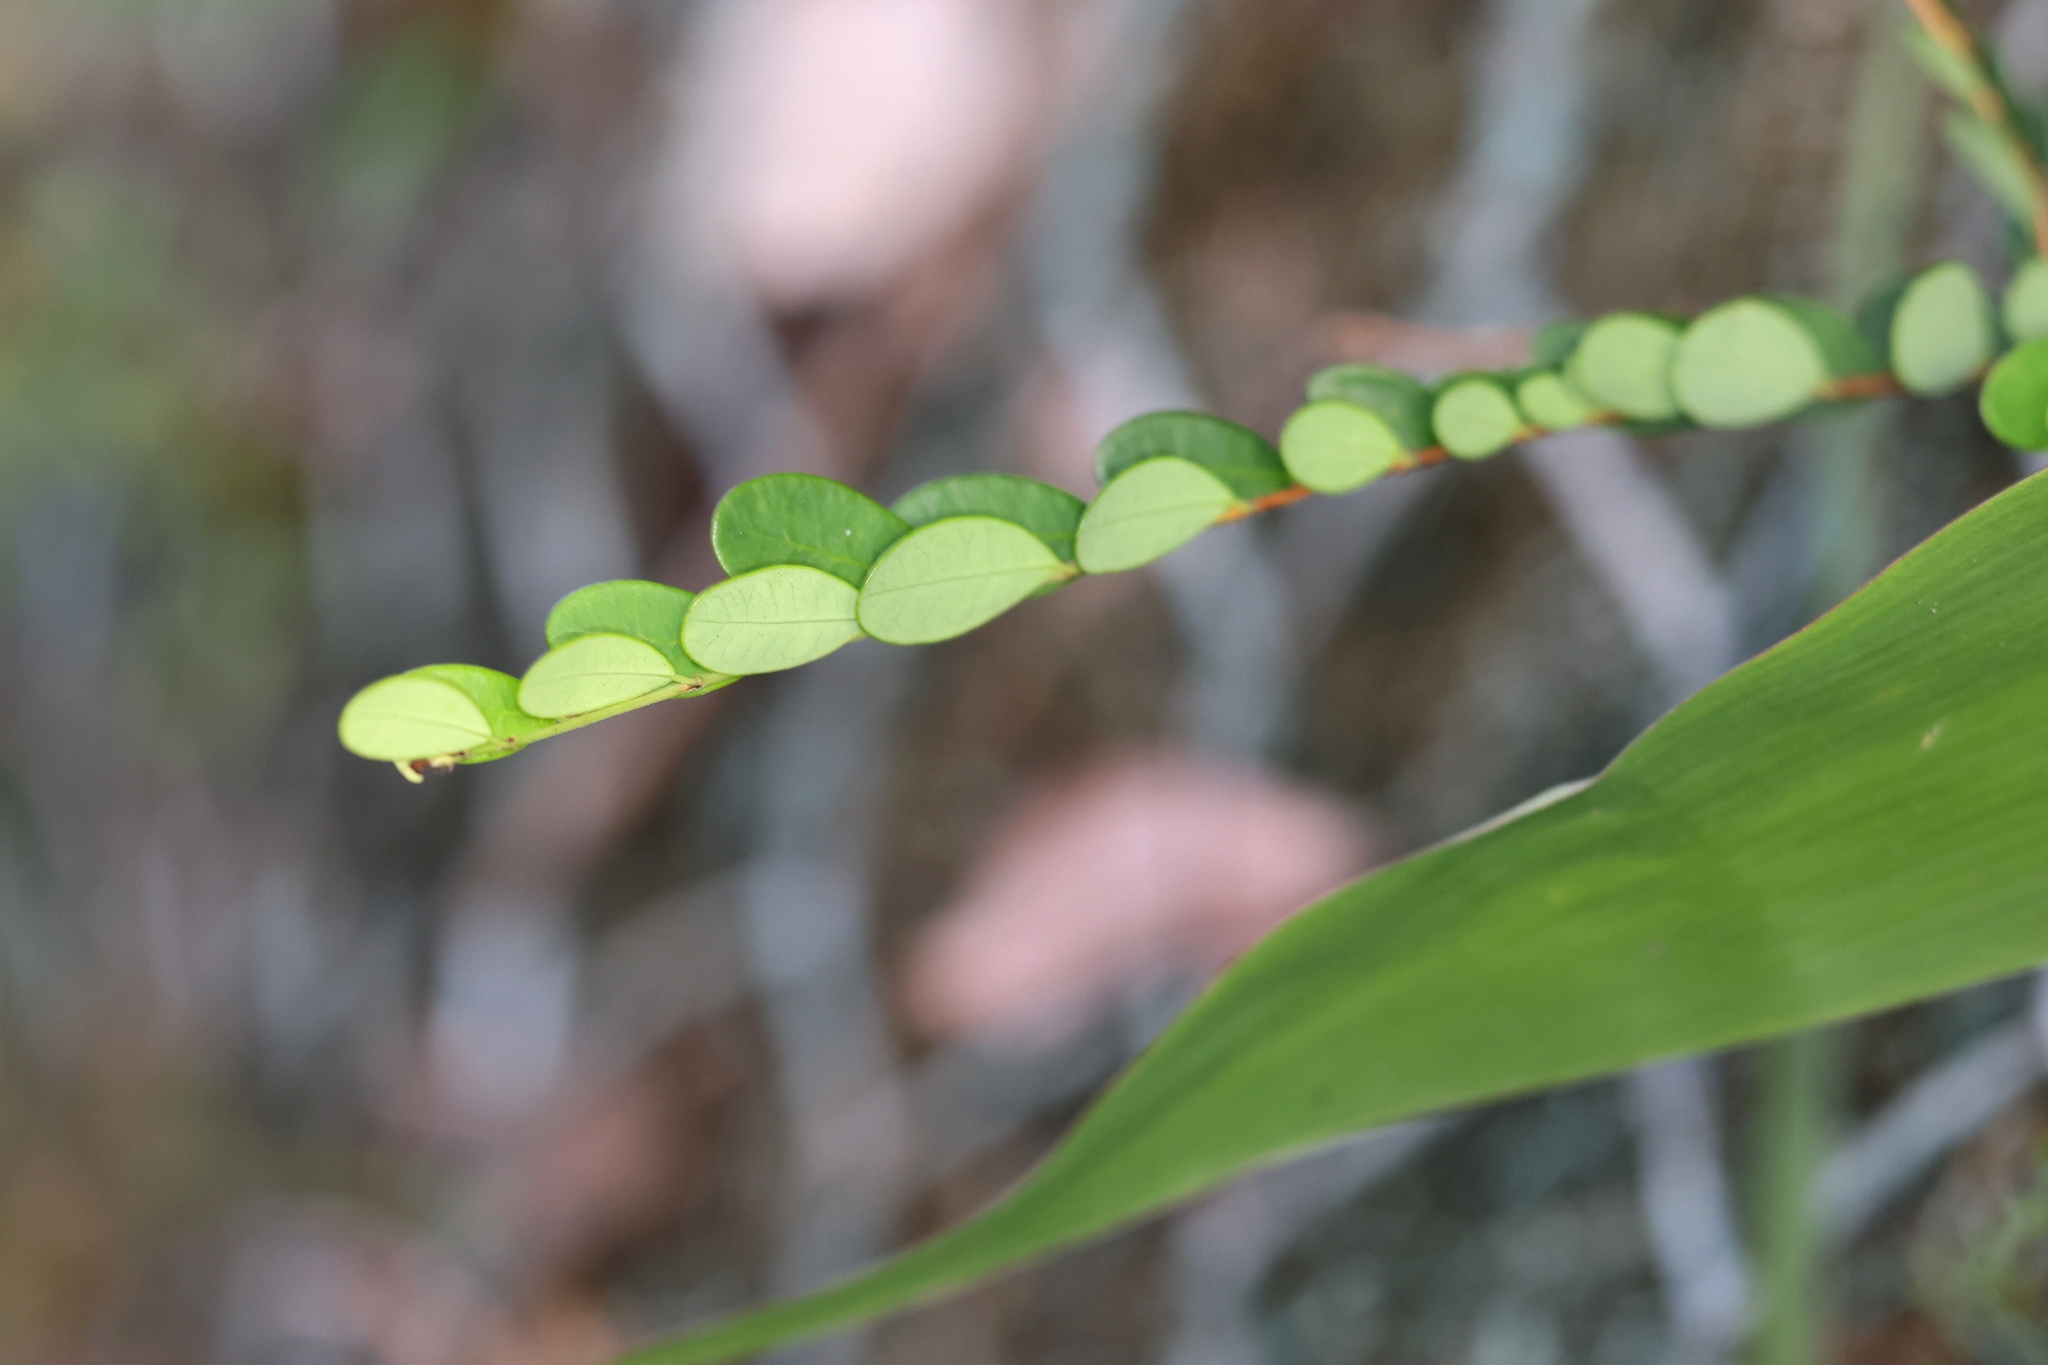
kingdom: Plantae
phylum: Tracheophyta
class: Magnoliopsida
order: Malpighiales
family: Phyllanthaceae
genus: Phyllanthus
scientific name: Phyllanthus acidus
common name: Tahitian gooseberry tree
